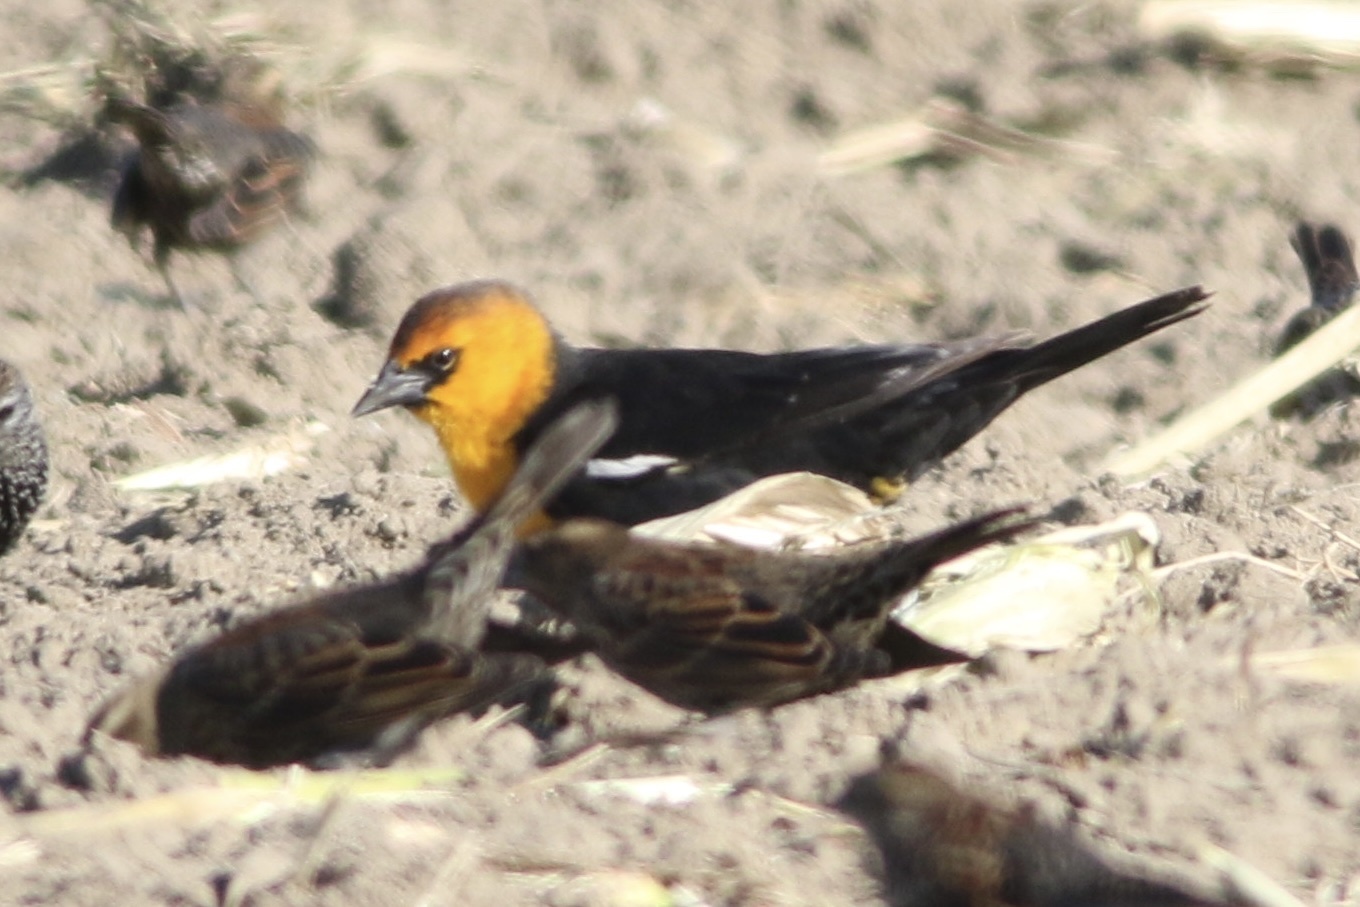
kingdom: Animalia
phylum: Chordata
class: Aves
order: Passeriformes
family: Icteridae
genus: Xanthocephalus
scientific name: Xanthocephalus xanthocephalus
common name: Yellow-headed blackbird
